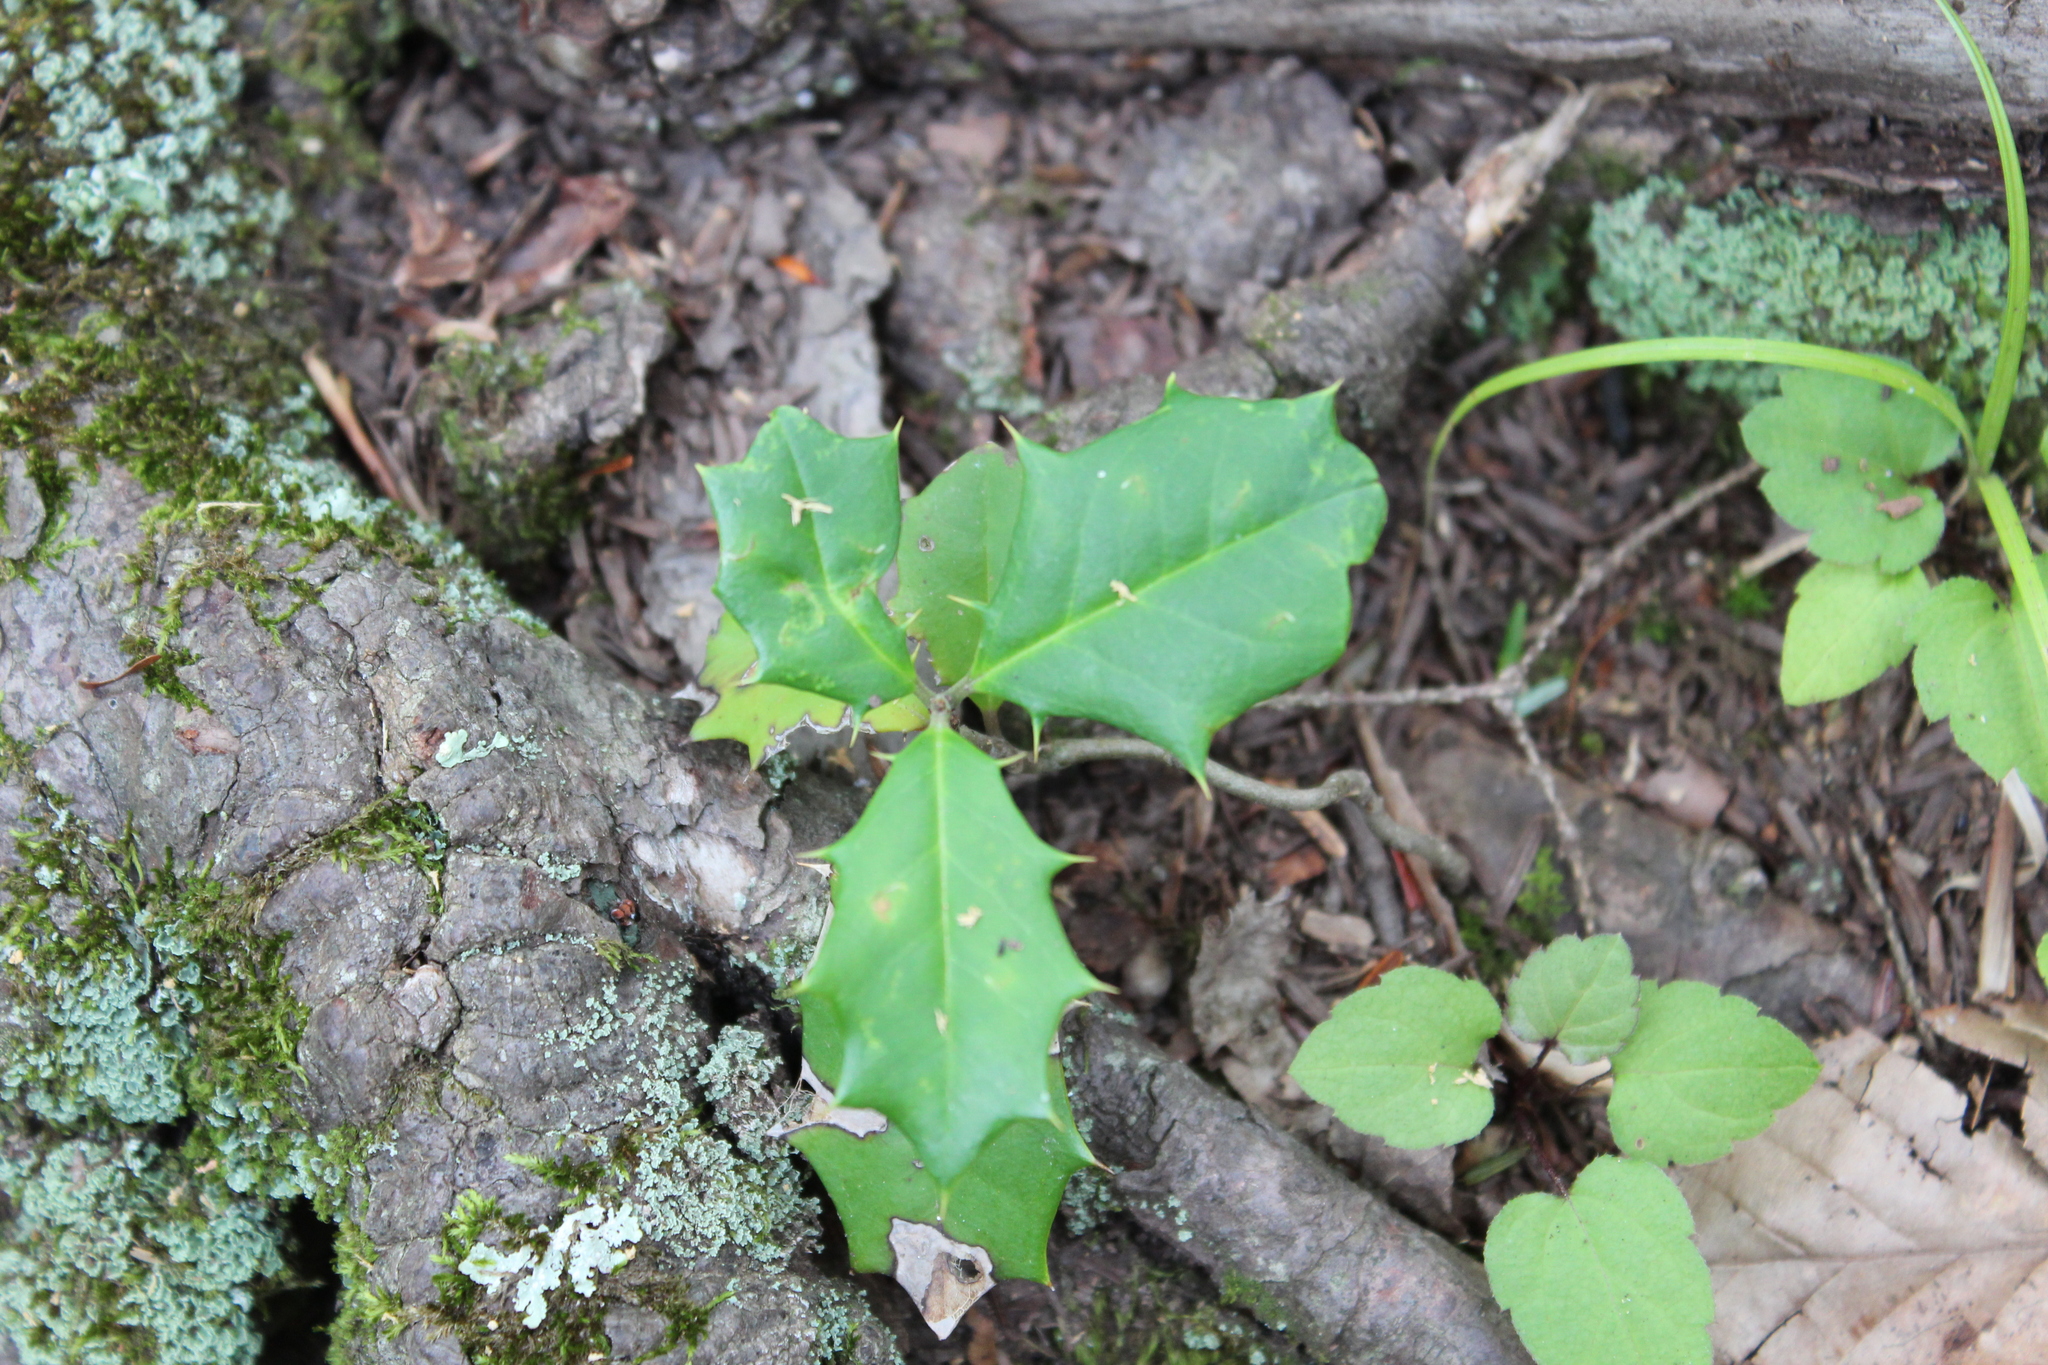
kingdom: Plantae
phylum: Tracheophyta
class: Magnoliopsida
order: Aquifoliales
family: Aquifoliaceae
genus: Ilex
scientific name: Ilex opaca
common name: American holly
